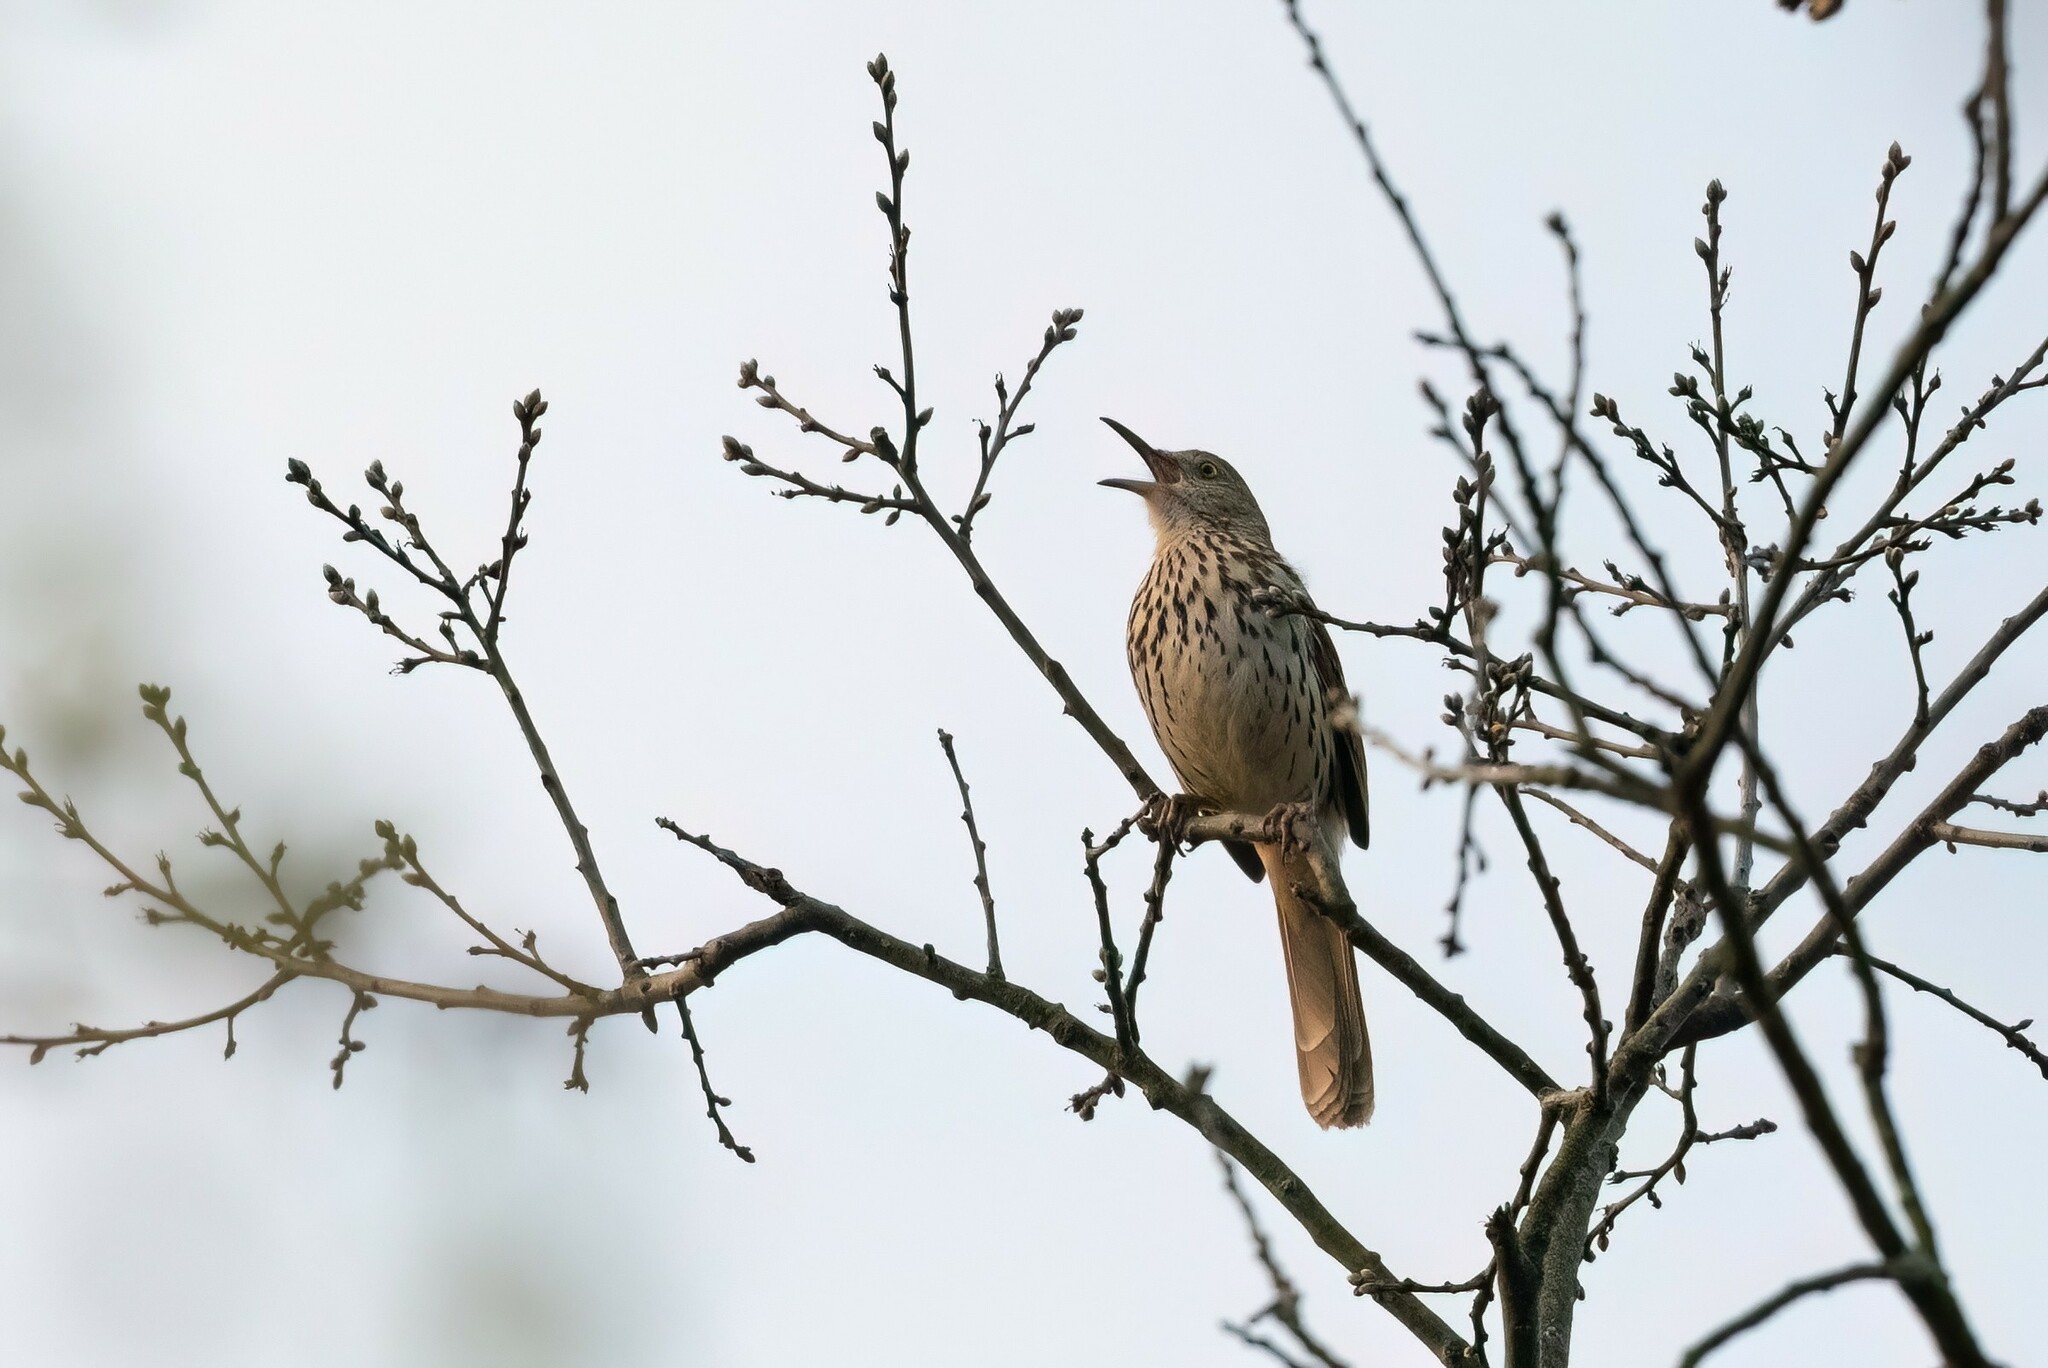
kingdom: Animalia
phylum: Chordata
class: Aves
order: Passeriformes
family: Mimidae
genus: Toxostoma
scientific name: Toxostoma rufum
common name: Brown thrasher
